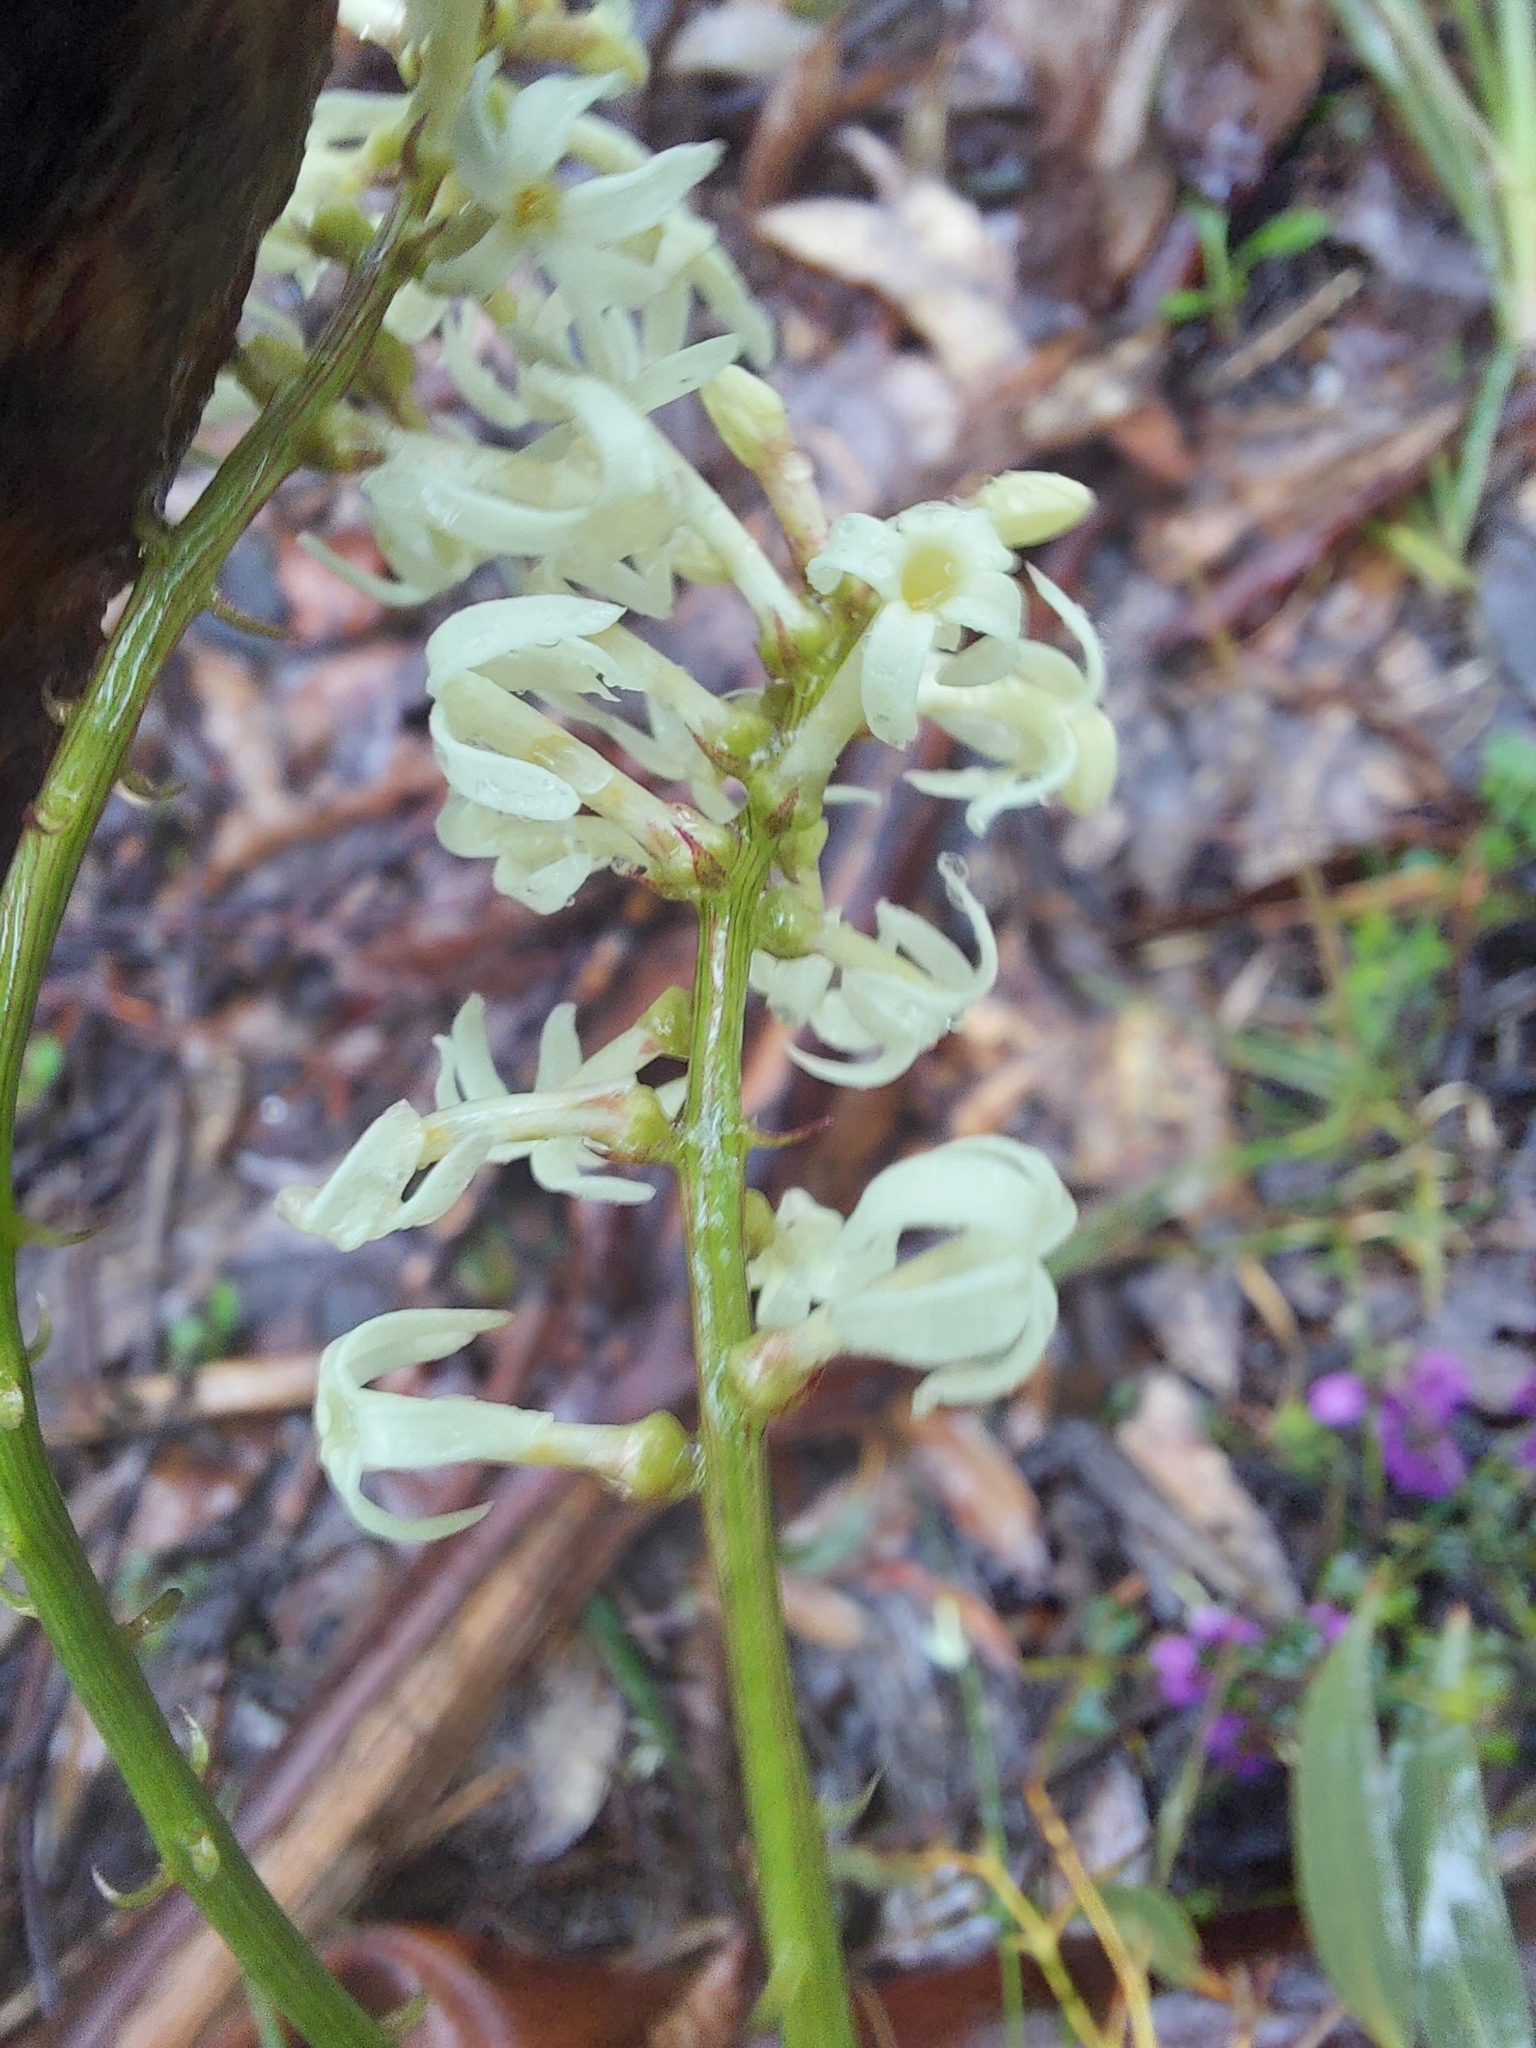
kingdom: Plantae
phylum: Tracheophyta
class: Magnoliopsida
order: Celastrales
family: Celastraceae
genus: Stackhousia
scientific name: Stackhousia monogyna
